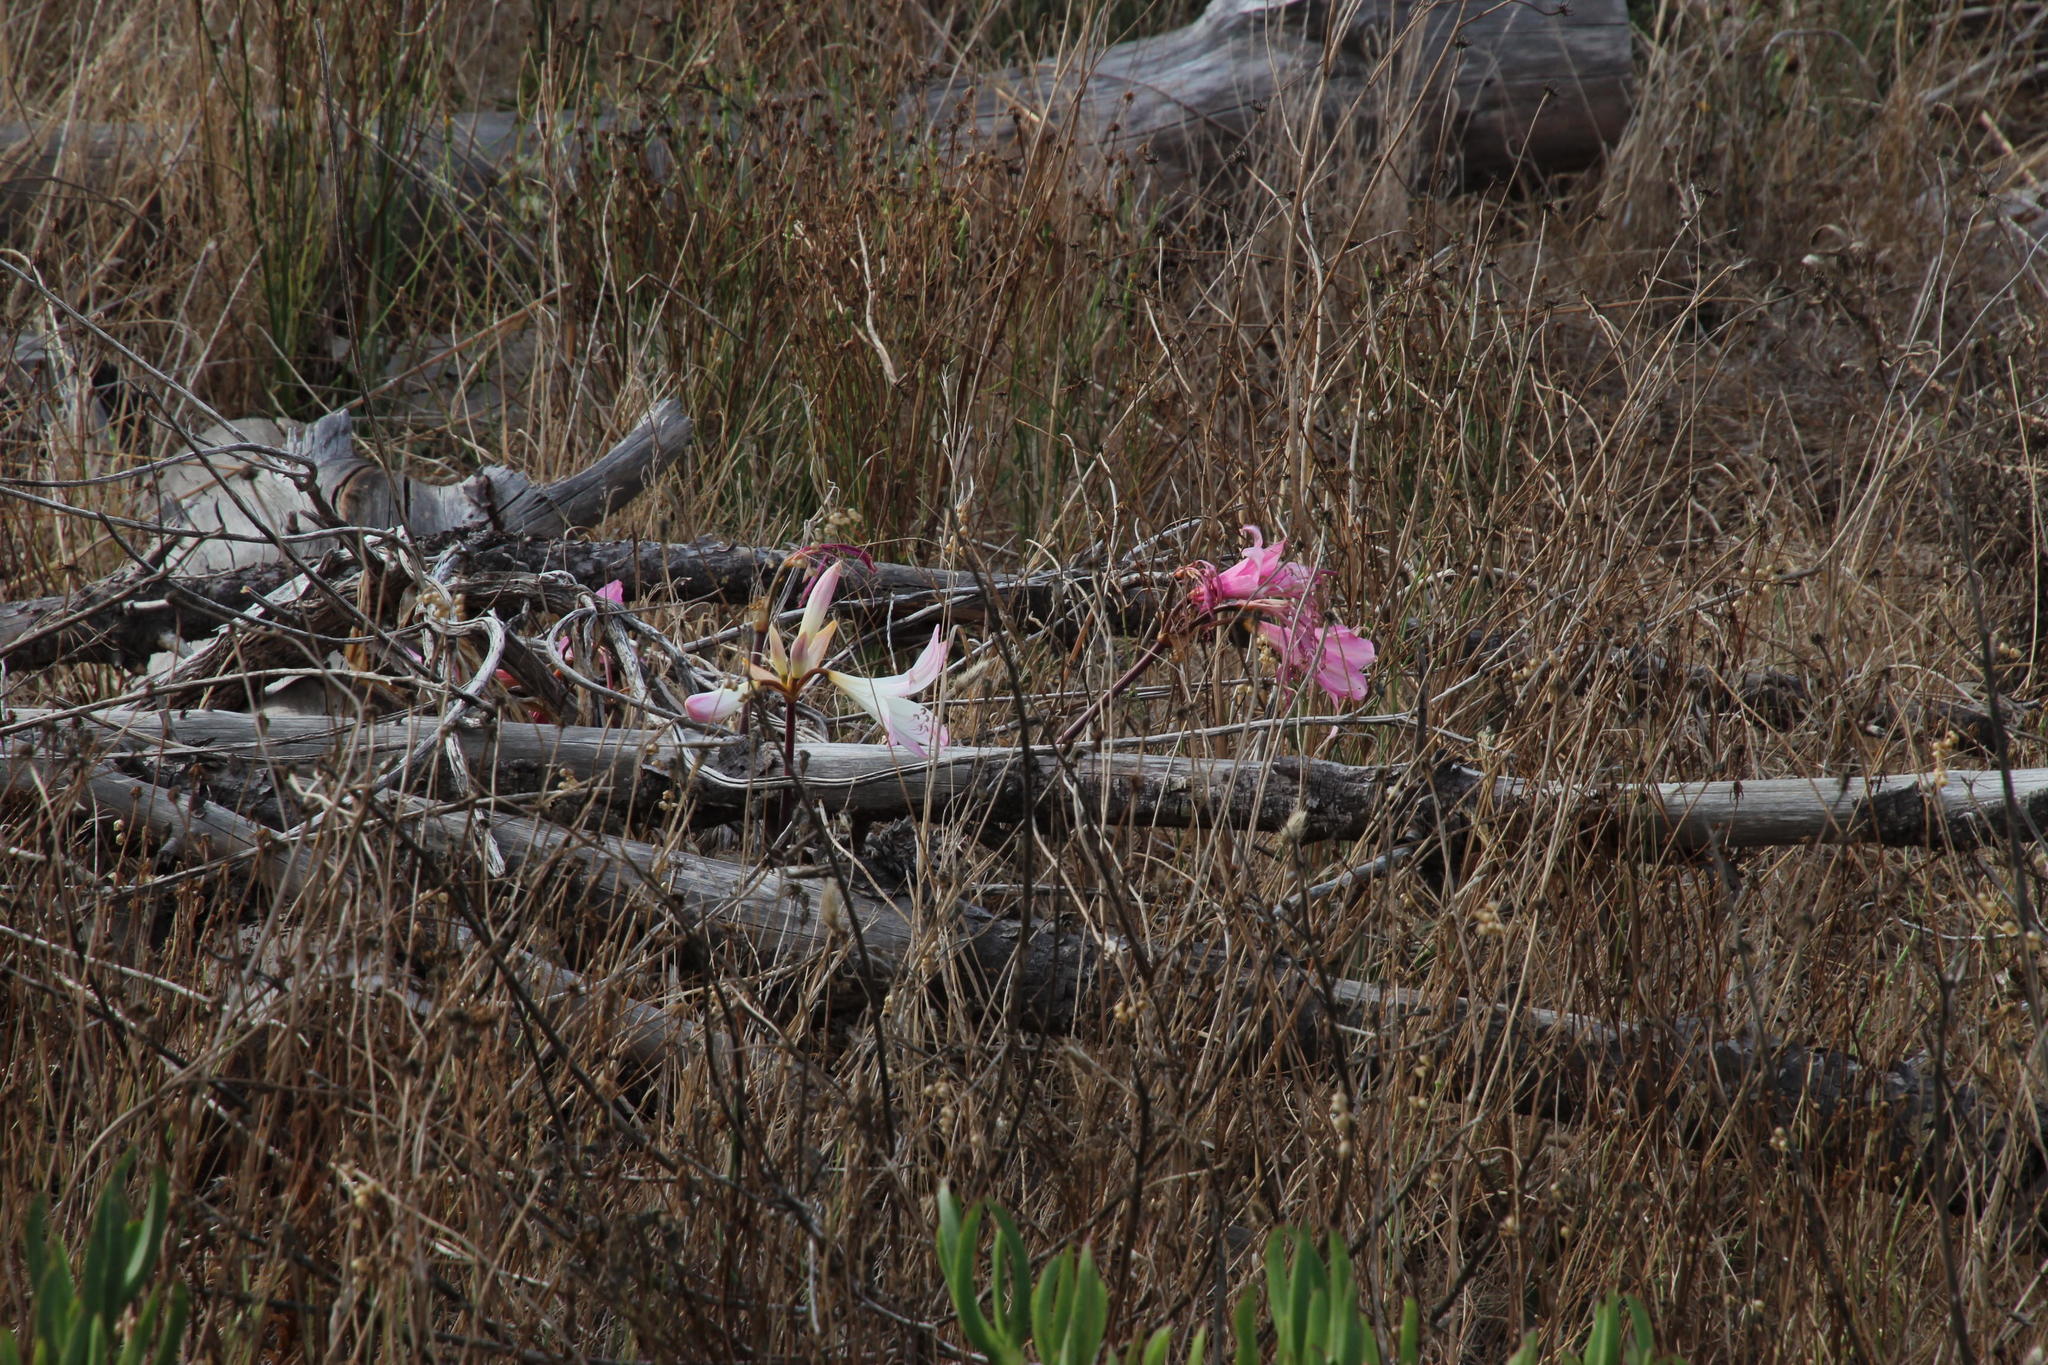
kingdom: Plantae
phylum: Tracheophyta
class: Liliopsida
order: Asparagales
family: Amaryllidaceae
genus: Amaryllis
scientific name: Amaryllis belladonna
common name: Jersey lily
